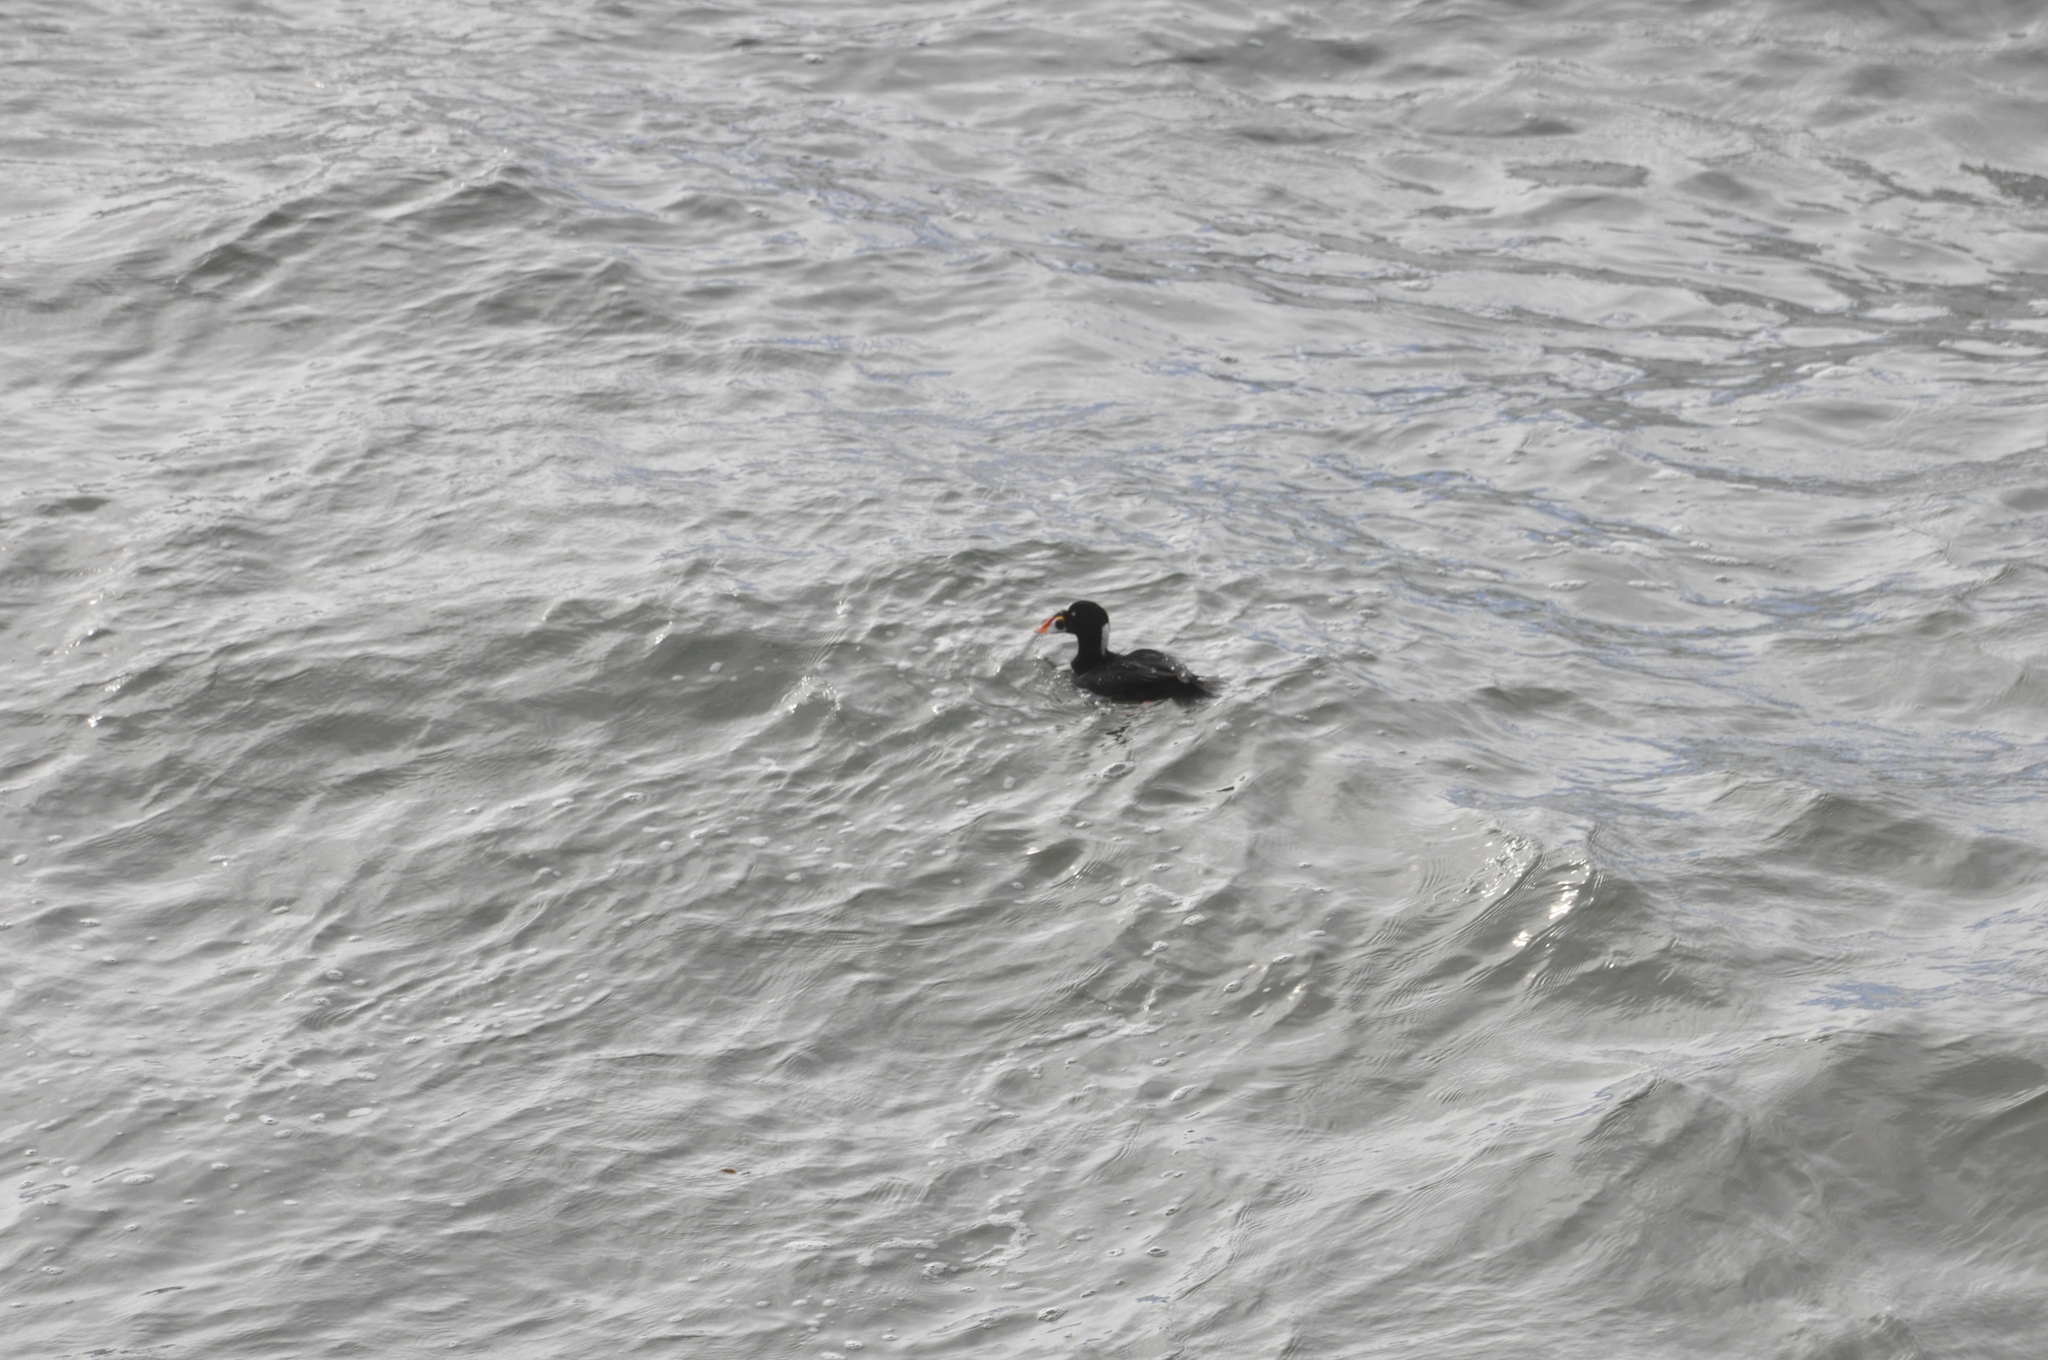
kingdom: Animalia
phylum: Chordata
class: Aves
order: Anseriformes
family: Anatidae
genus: Melanitta
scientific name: Melanitta perspicillata
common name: Surf scoter
